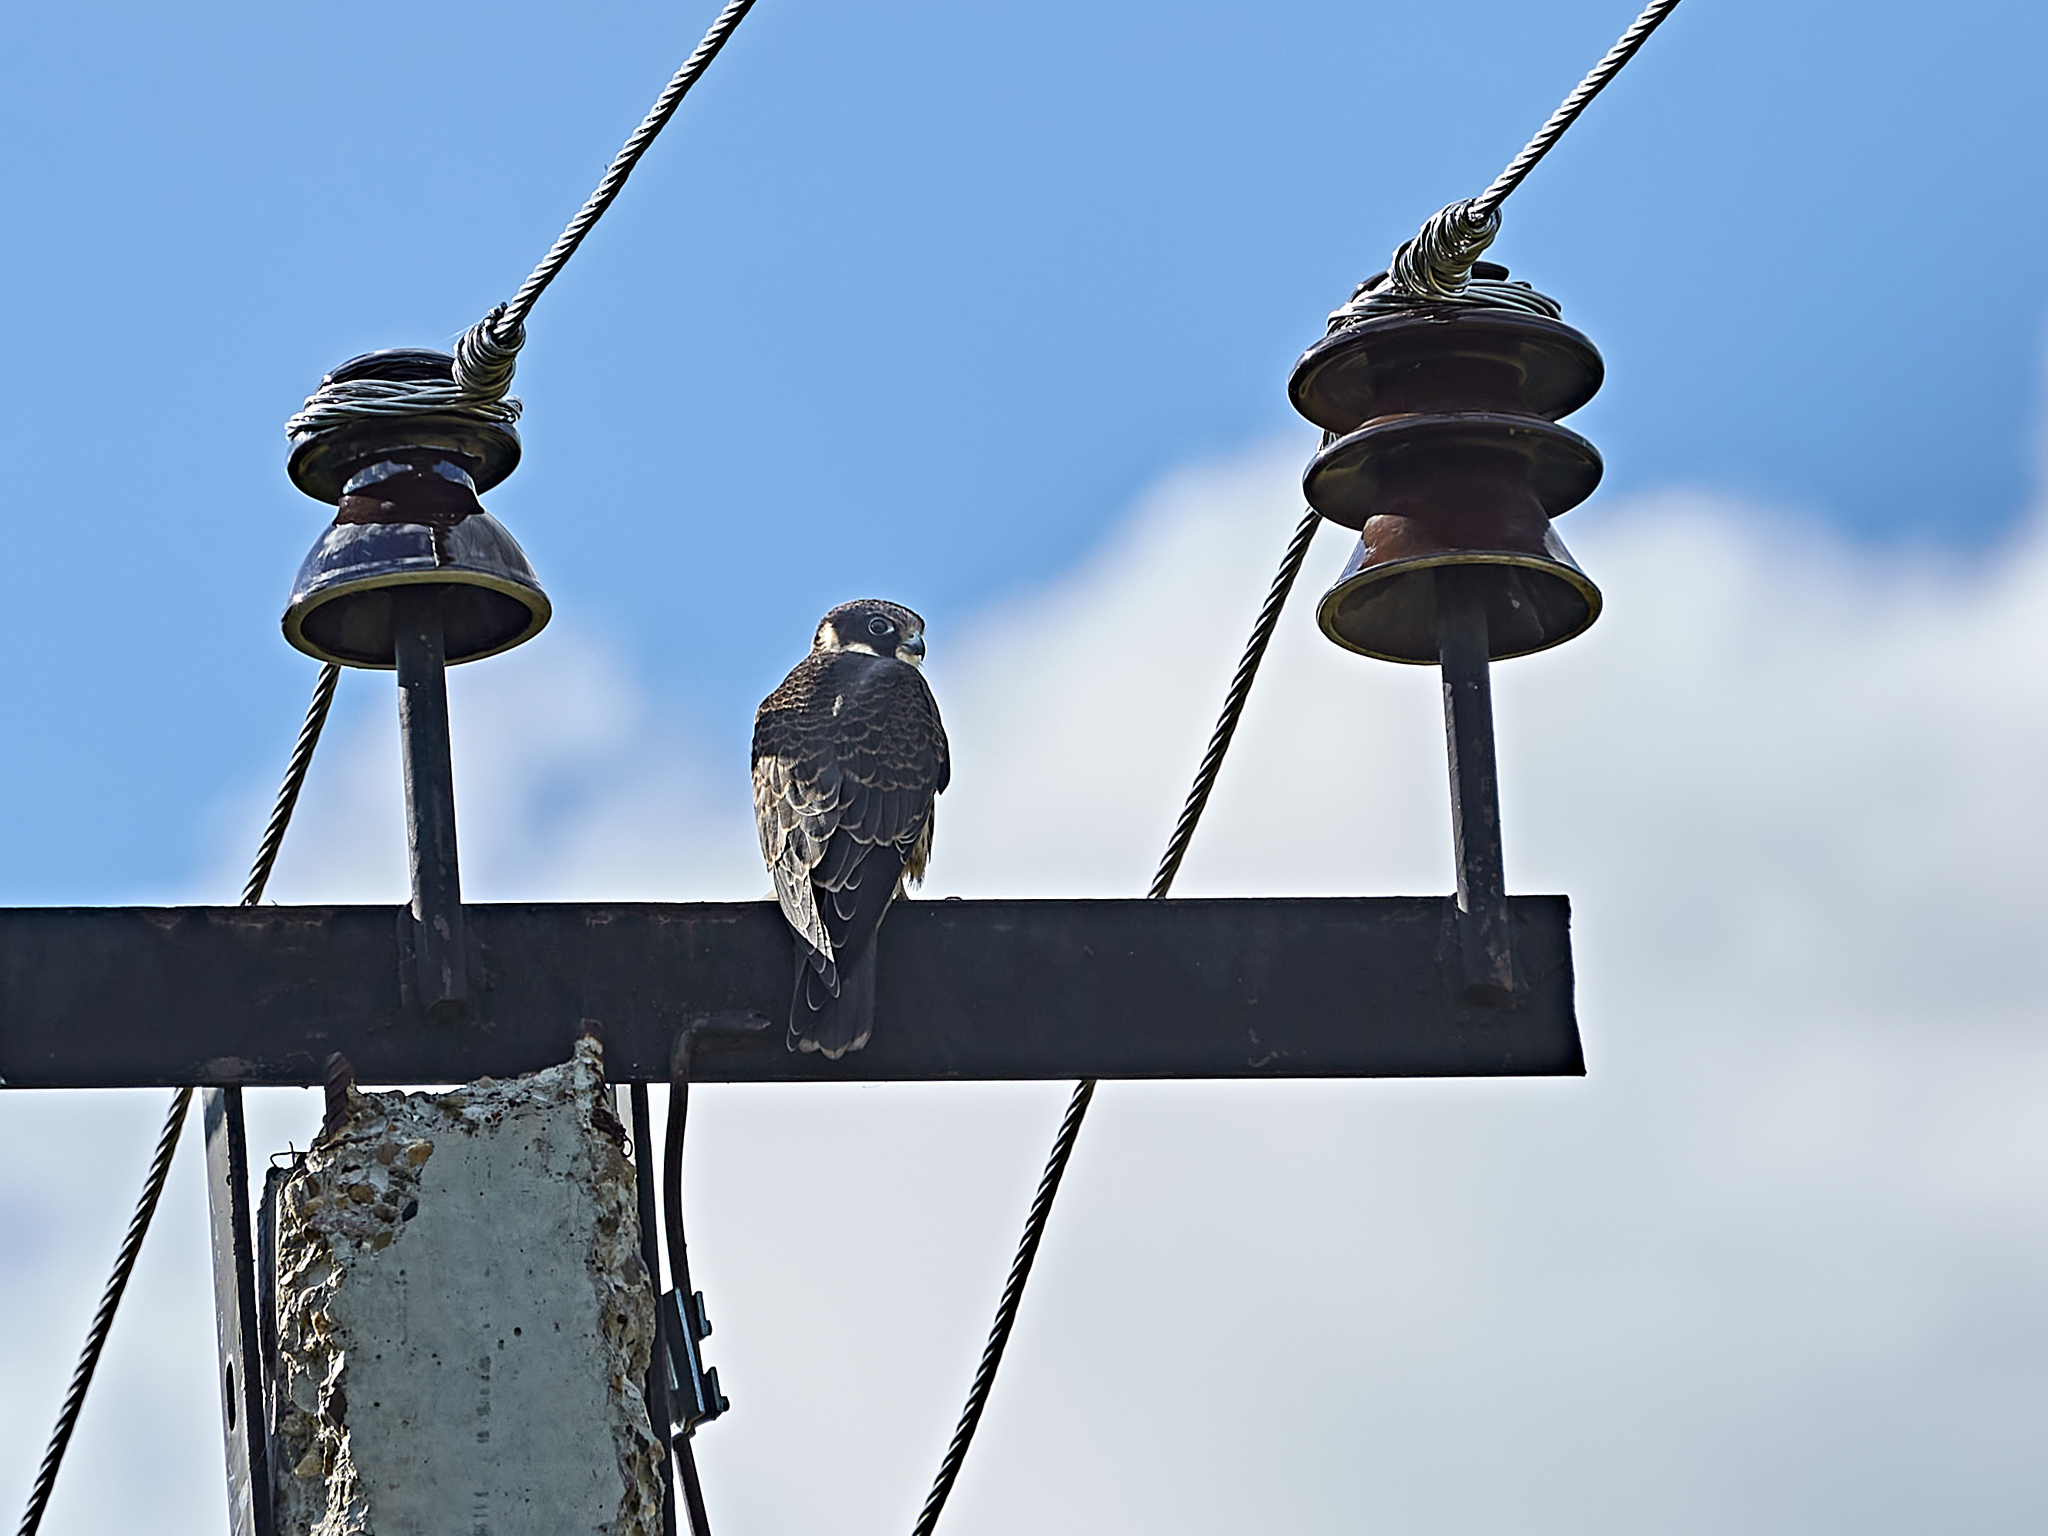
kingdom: Animalia
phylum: Chordata
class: Aves
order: Falconiformes
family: Falconidae
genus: Falco
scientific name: Falco subbuteo
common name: Eurasian hobby
